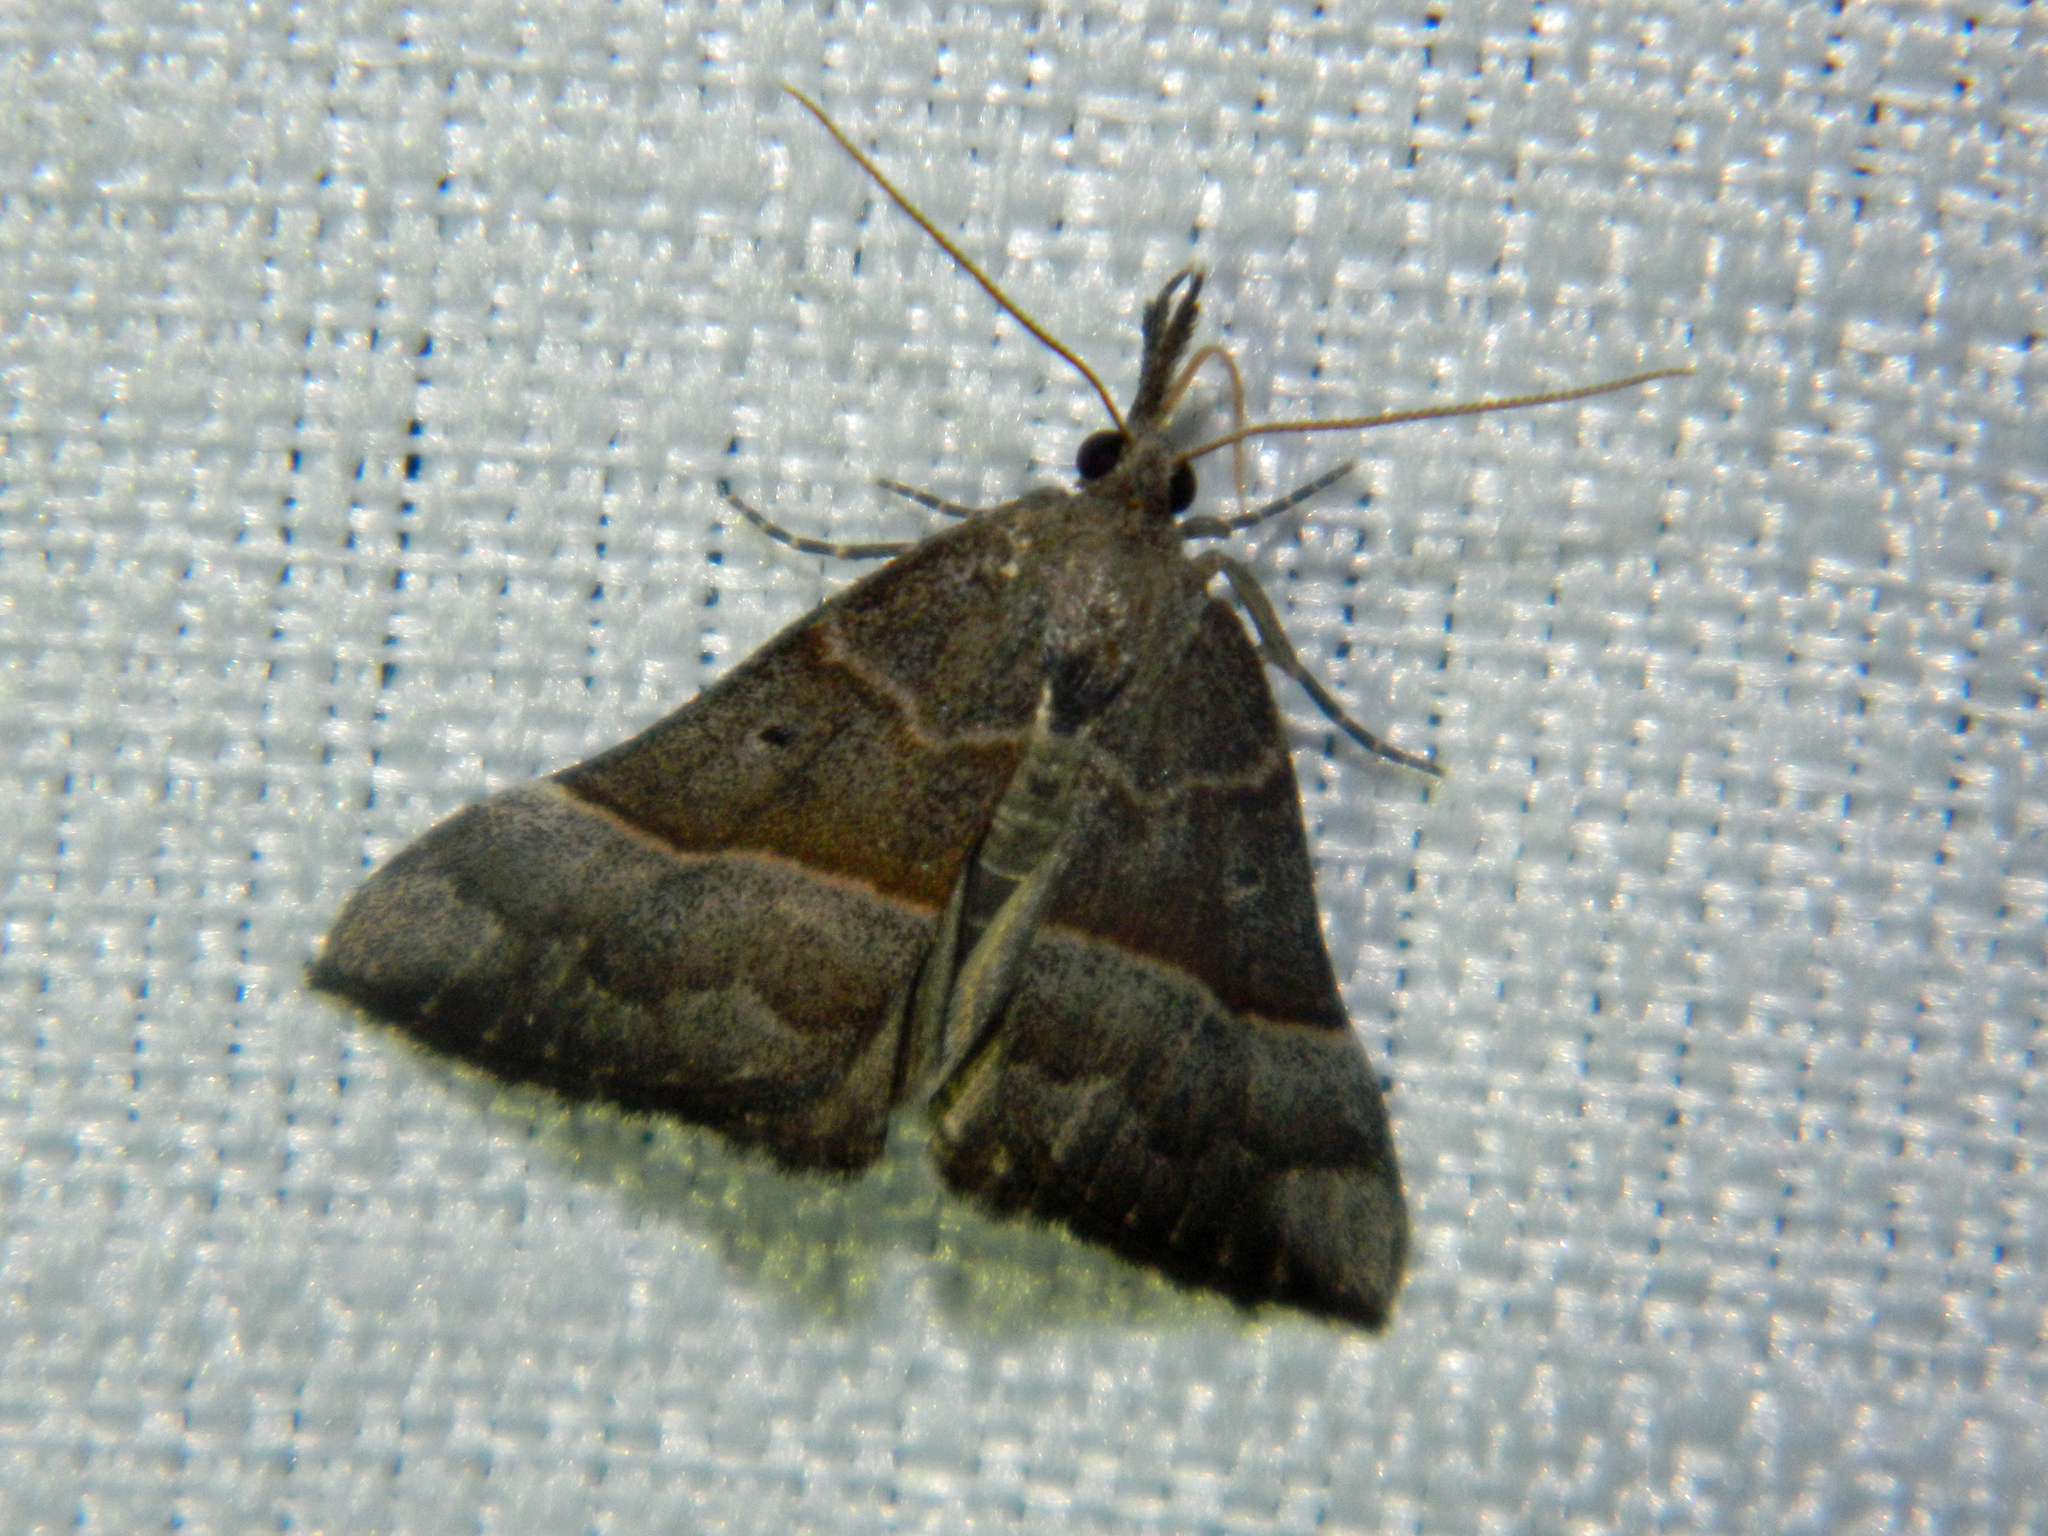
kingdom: Animalia
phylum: Arthropoda
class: Insecta
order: Lepidoptera
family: Erebidae
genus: Hypena
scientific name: Hypena eductalis
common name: Red-footed snout
